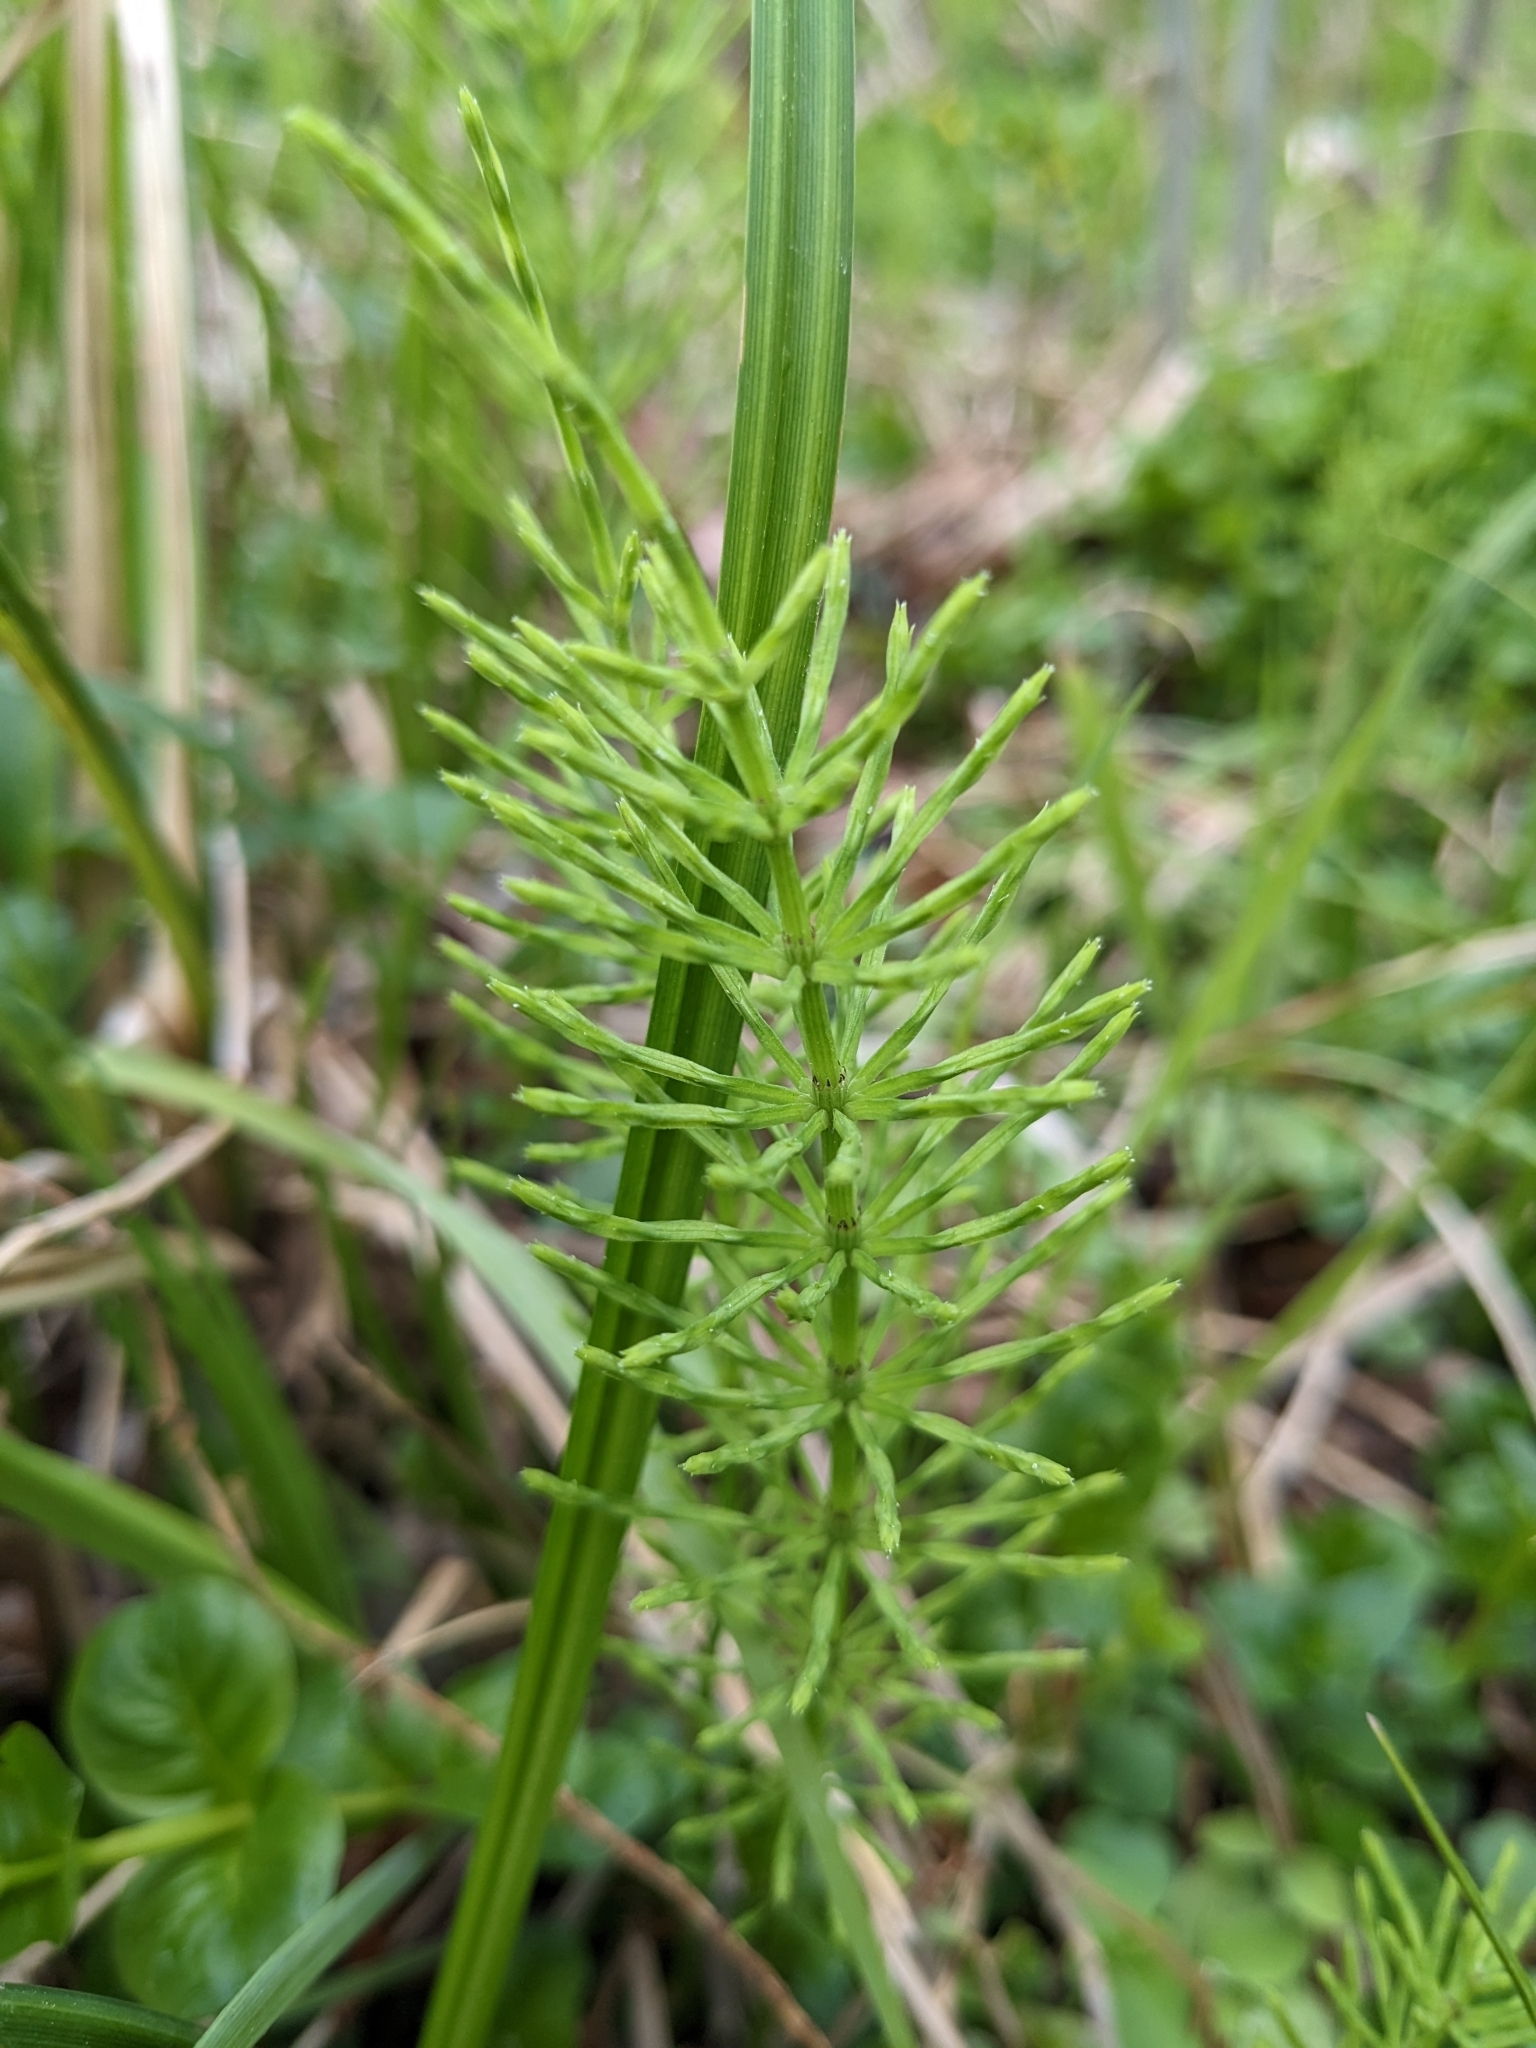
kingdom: Plantae
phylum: Tracheophyta
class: Polypodiopsida
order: Equisetales
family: Equisetaceae
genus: Equisetum
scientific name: Equisetum arvense
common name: Field horsetail
